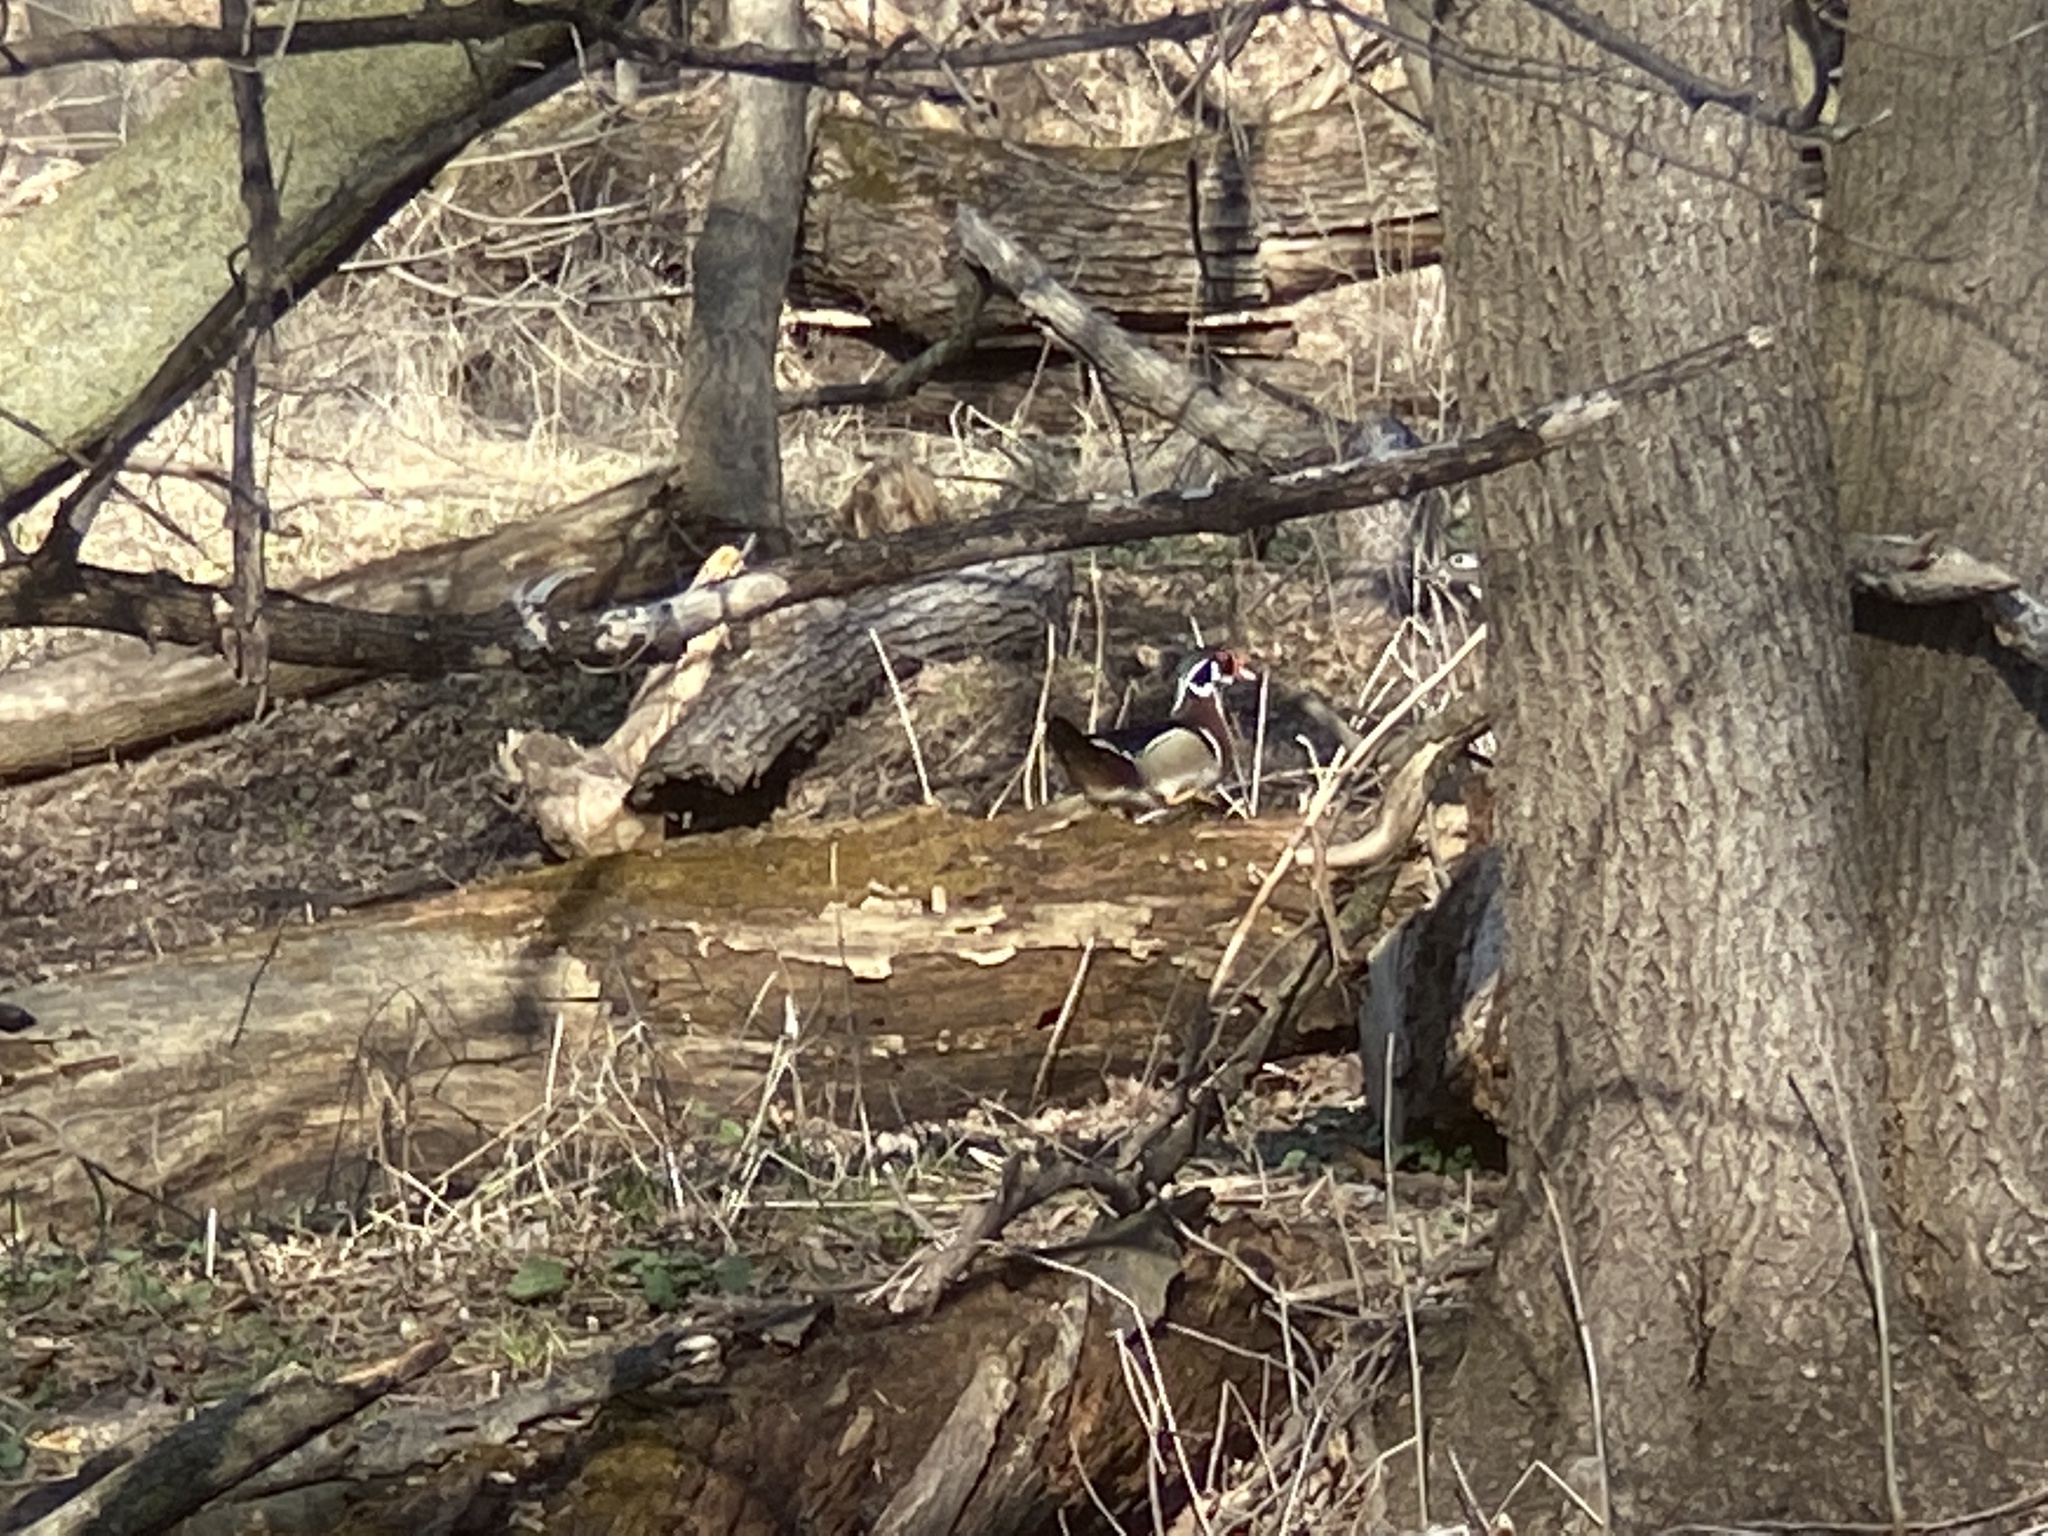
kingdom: Animalia
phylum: Chordata
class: Aves
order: Anseriformes
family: Anatidae
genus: Aix
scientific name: Aix sponsa
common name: Wood duck
